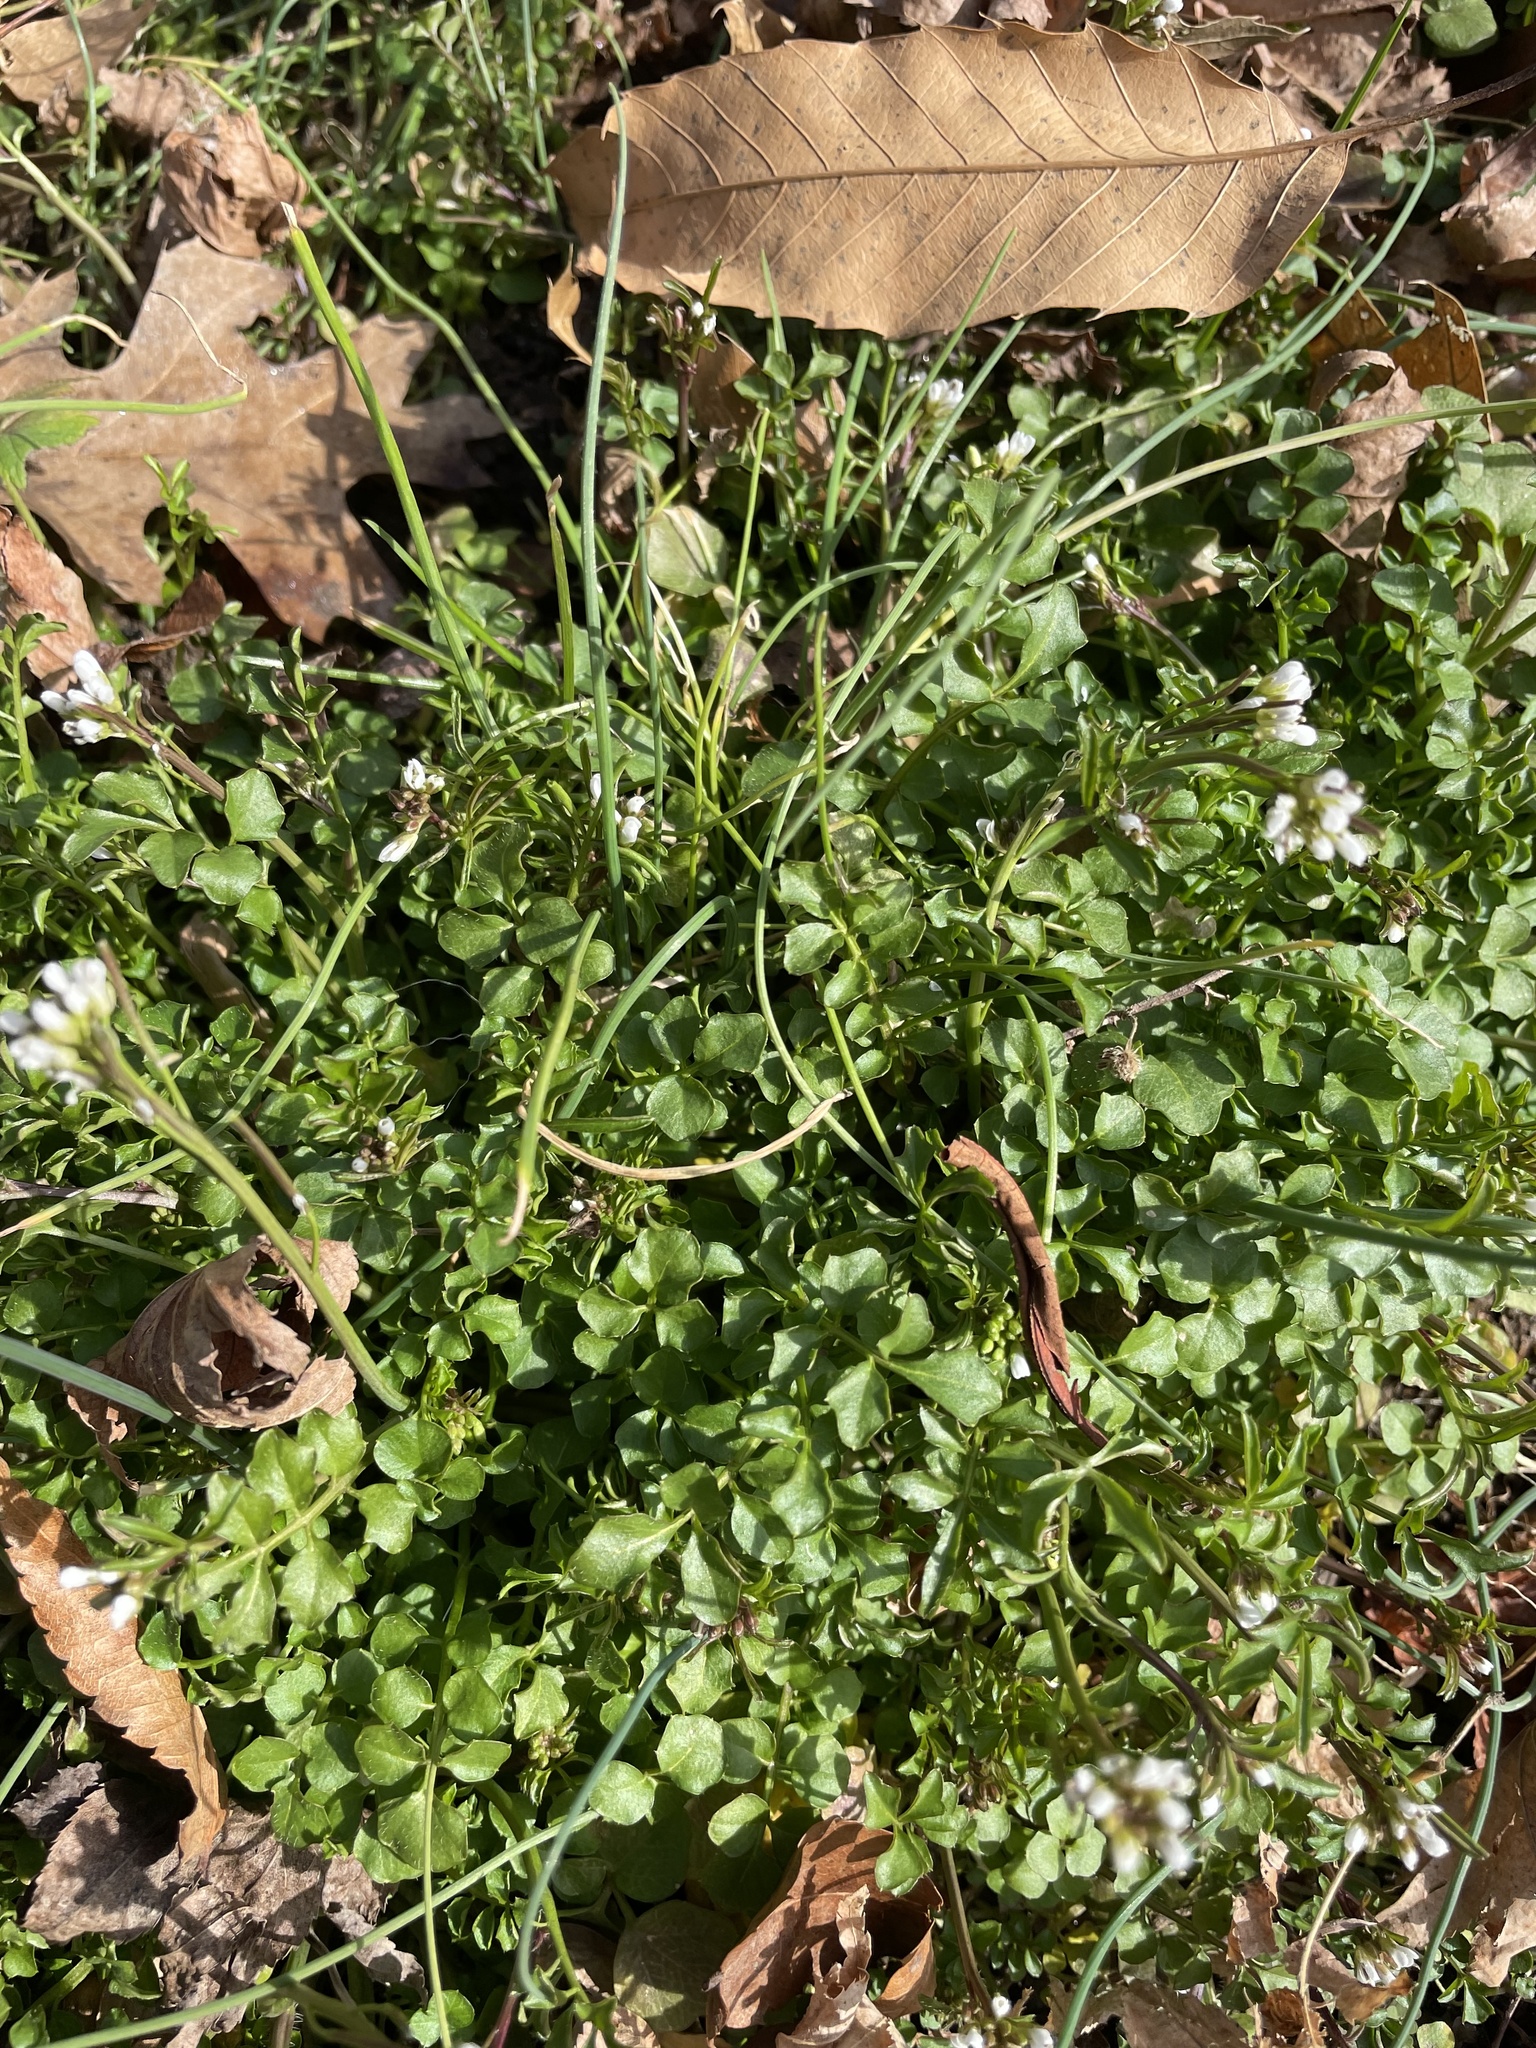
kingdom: Plantae
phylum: Tracheophyta
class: Magnoliopsida
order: Brassicales
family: Brassicaceae
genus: Cardamine
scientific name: Cardamine hirsuta
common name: Hairy bittercress
